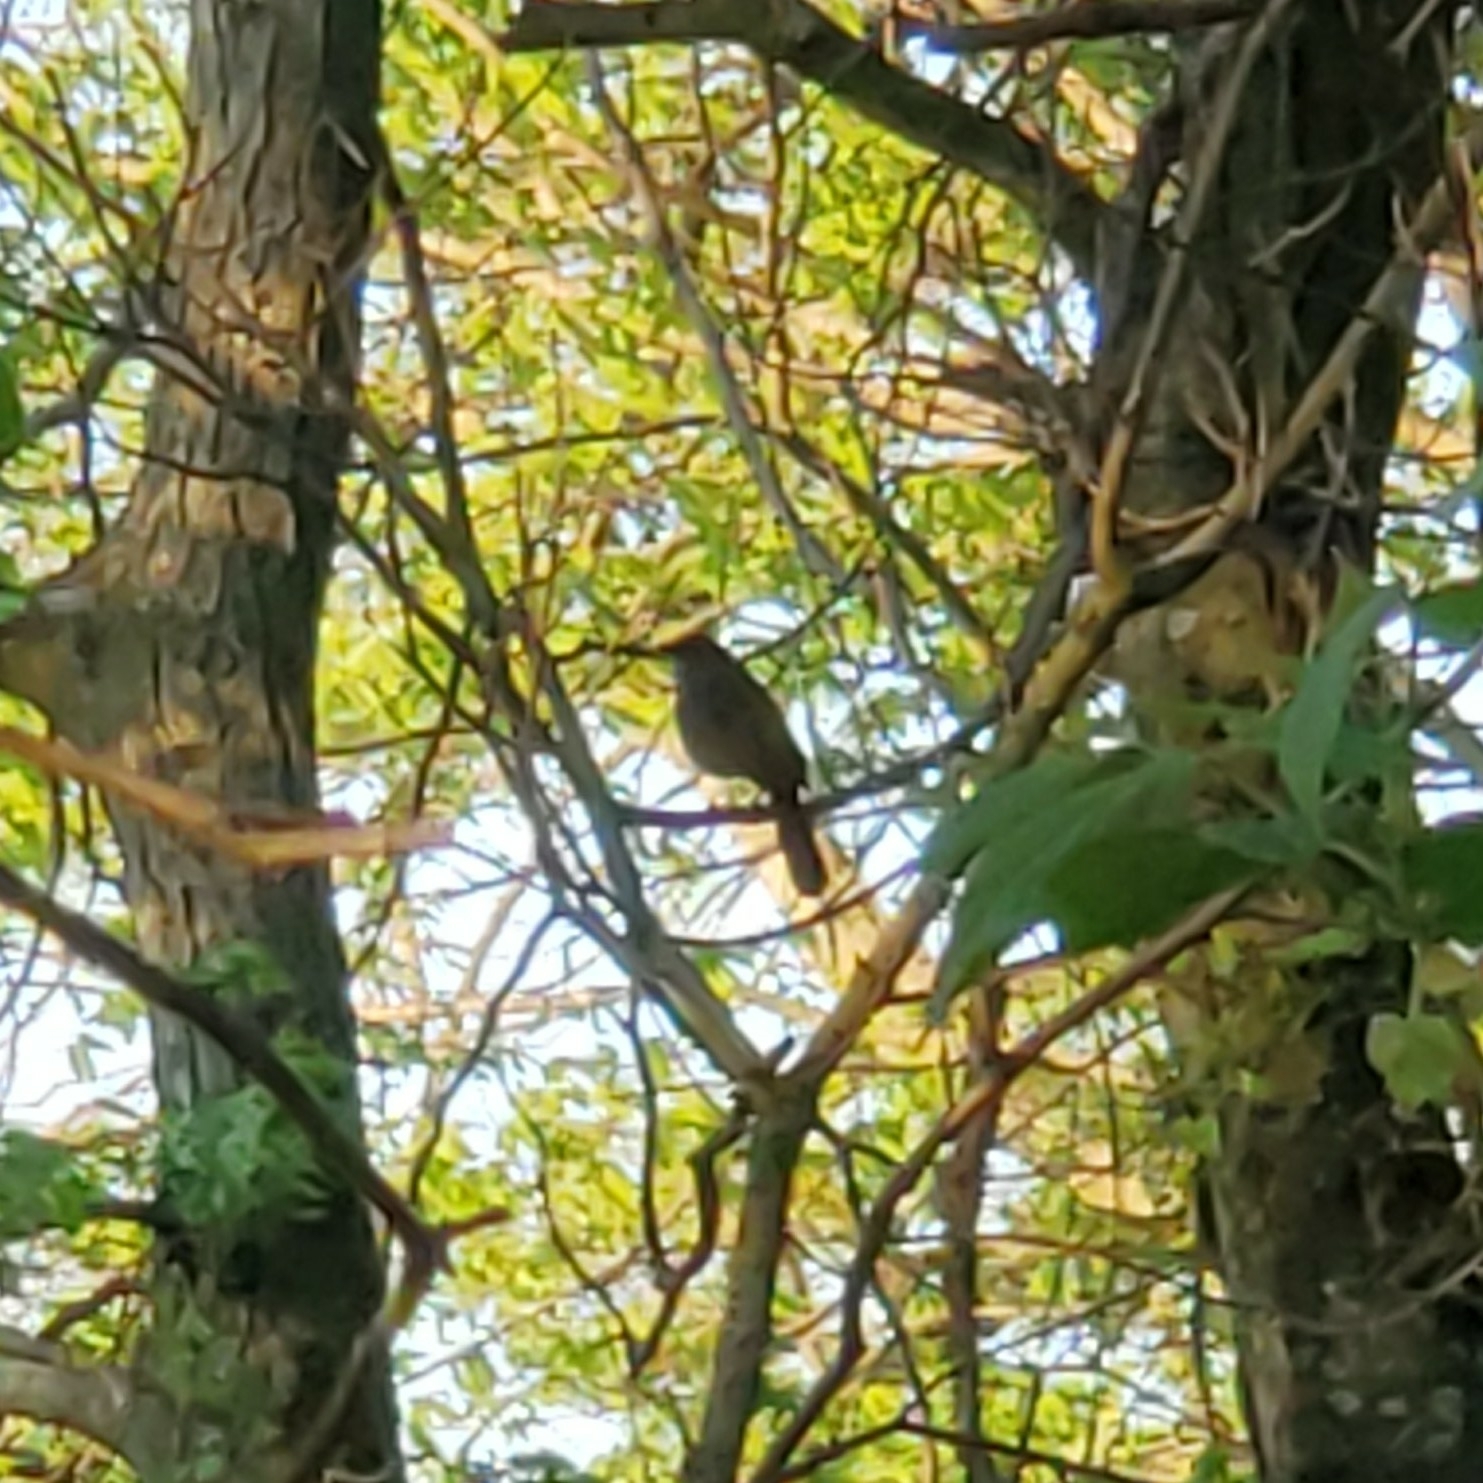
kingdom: Animalia
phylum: Chordata
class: Aves
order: Passeriformes
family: Mimidae
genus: Dumetella
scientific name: Dumetella carolinensis
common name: Gray catbird
